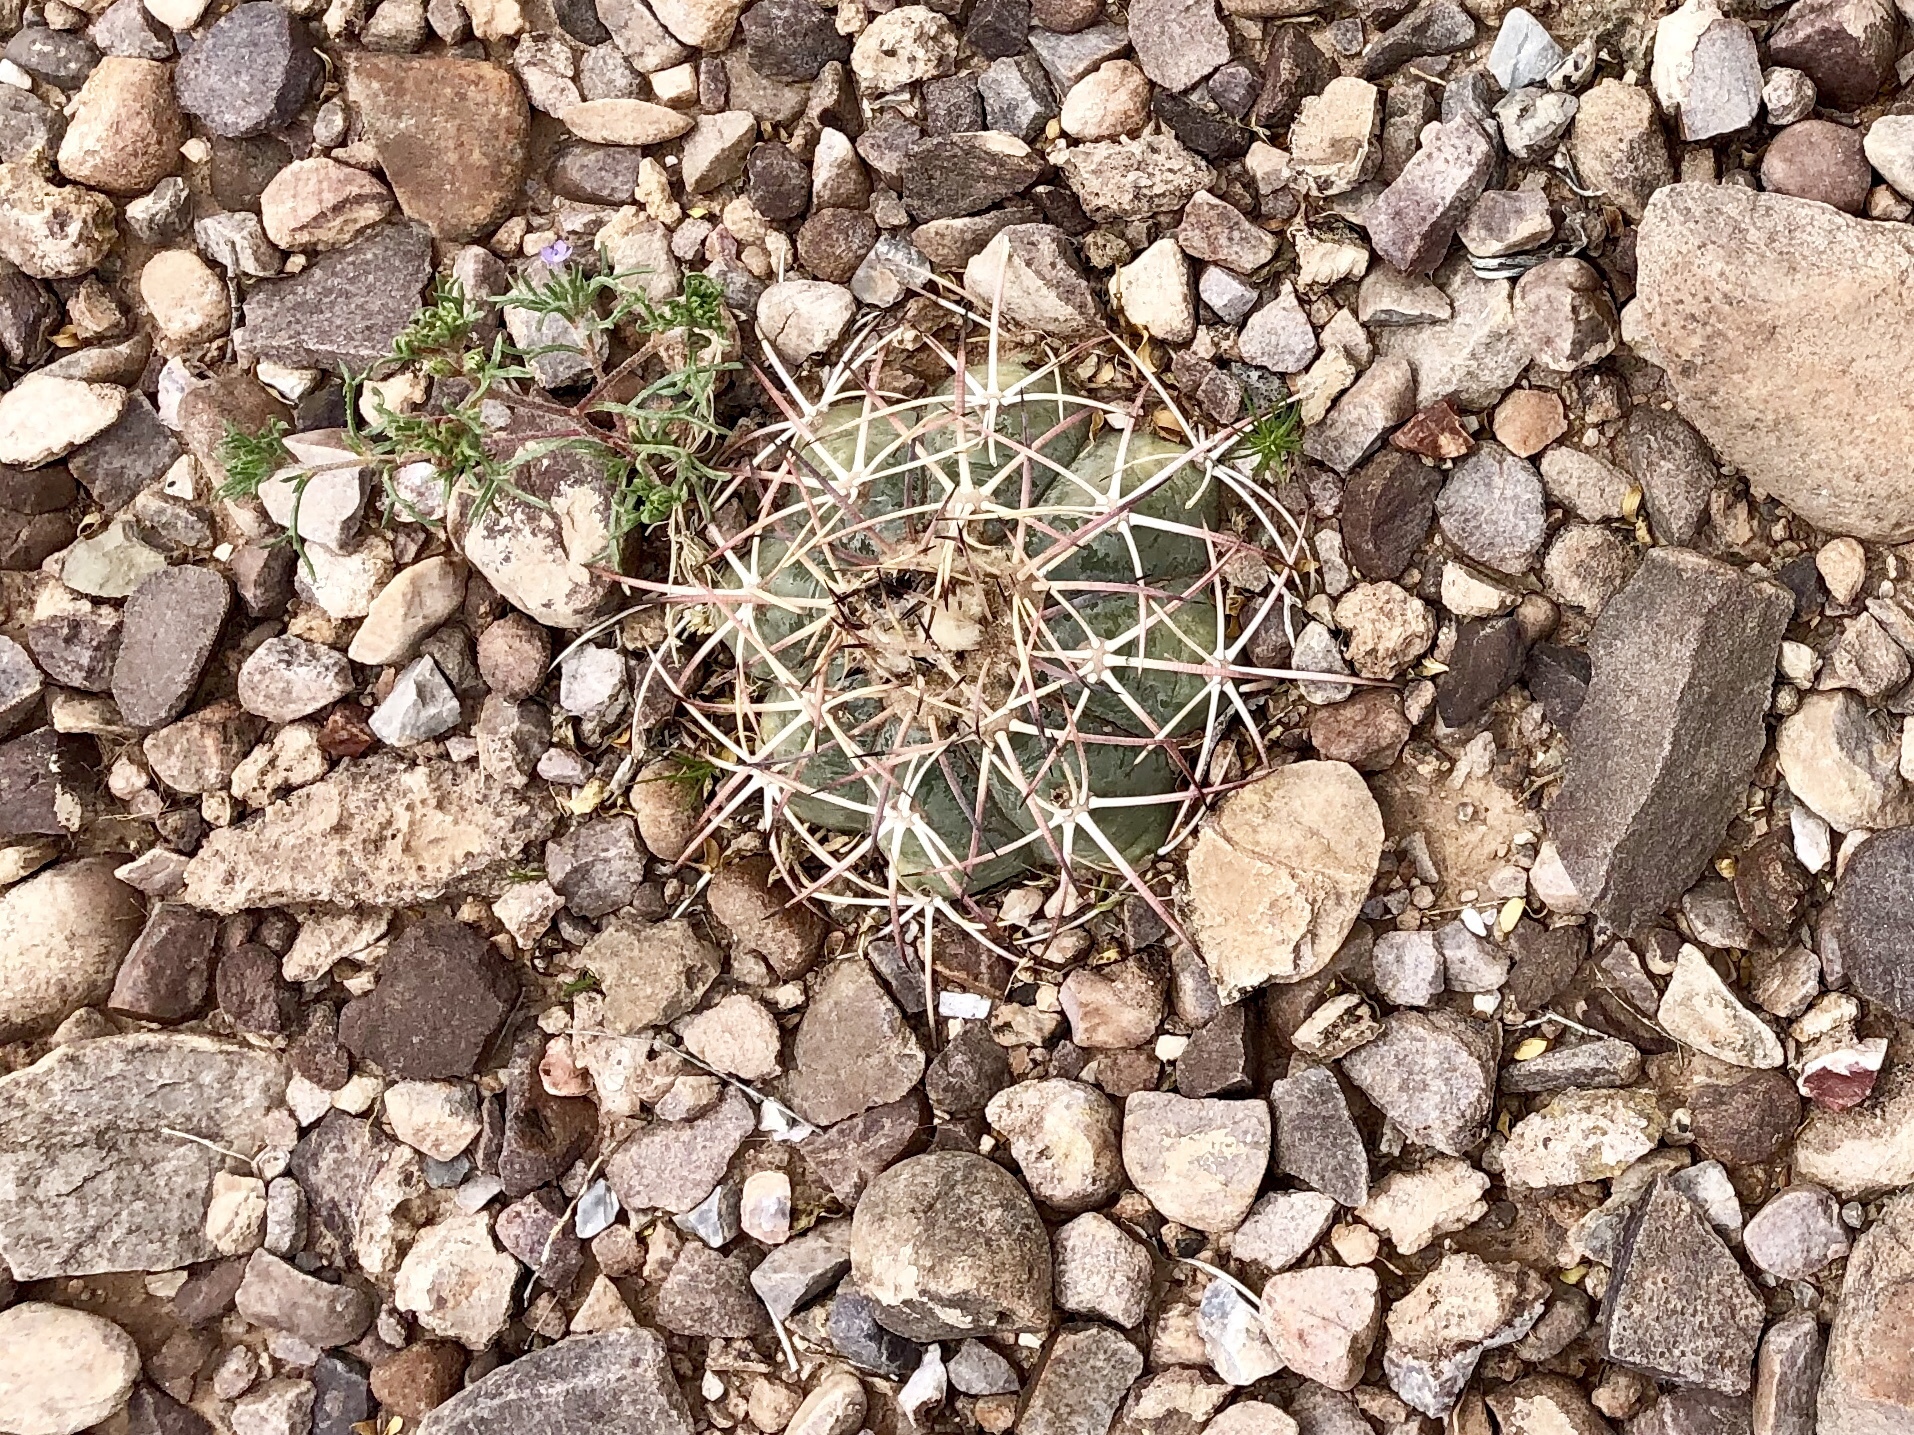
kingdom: Plantae
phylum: Tracheophyta
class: Magnoliopsida
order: Caryophyllales
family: Cactaceae
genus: Echinocactus
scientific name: Echinocactus horizonthalonius
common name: Devilshead
